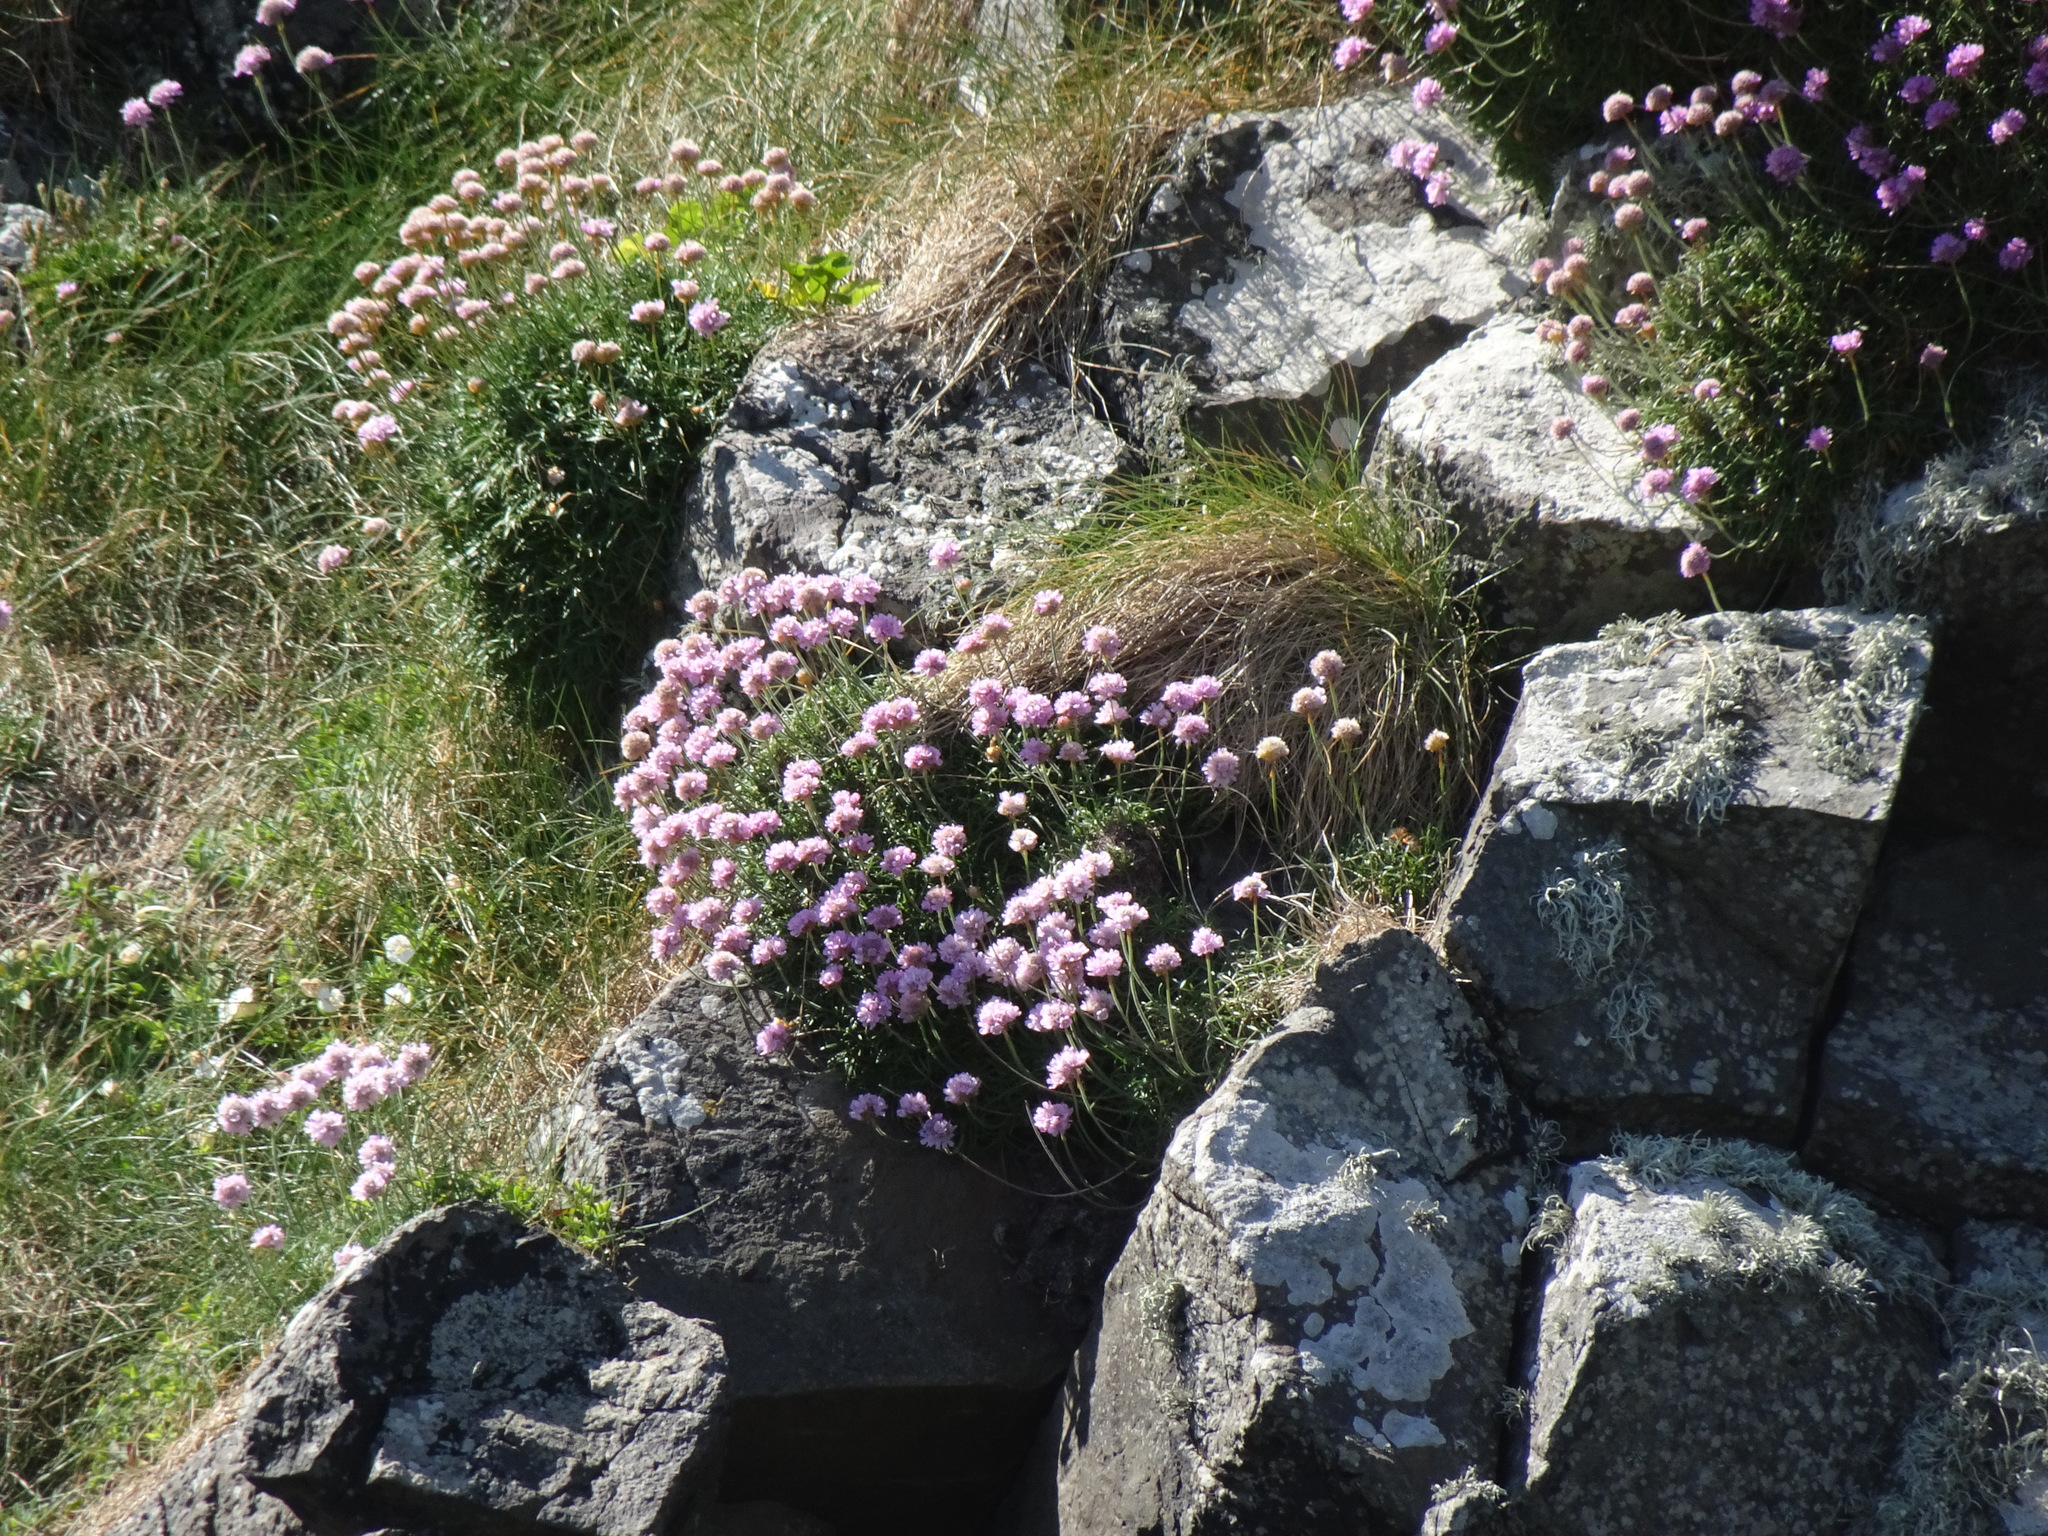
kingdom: Plantae
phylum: Tracheophyta
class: Magnoliopsida
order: Caryophyllales
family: Plumbaginaceae
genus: Armeria
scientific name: Armeria maritima
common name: Thrift
